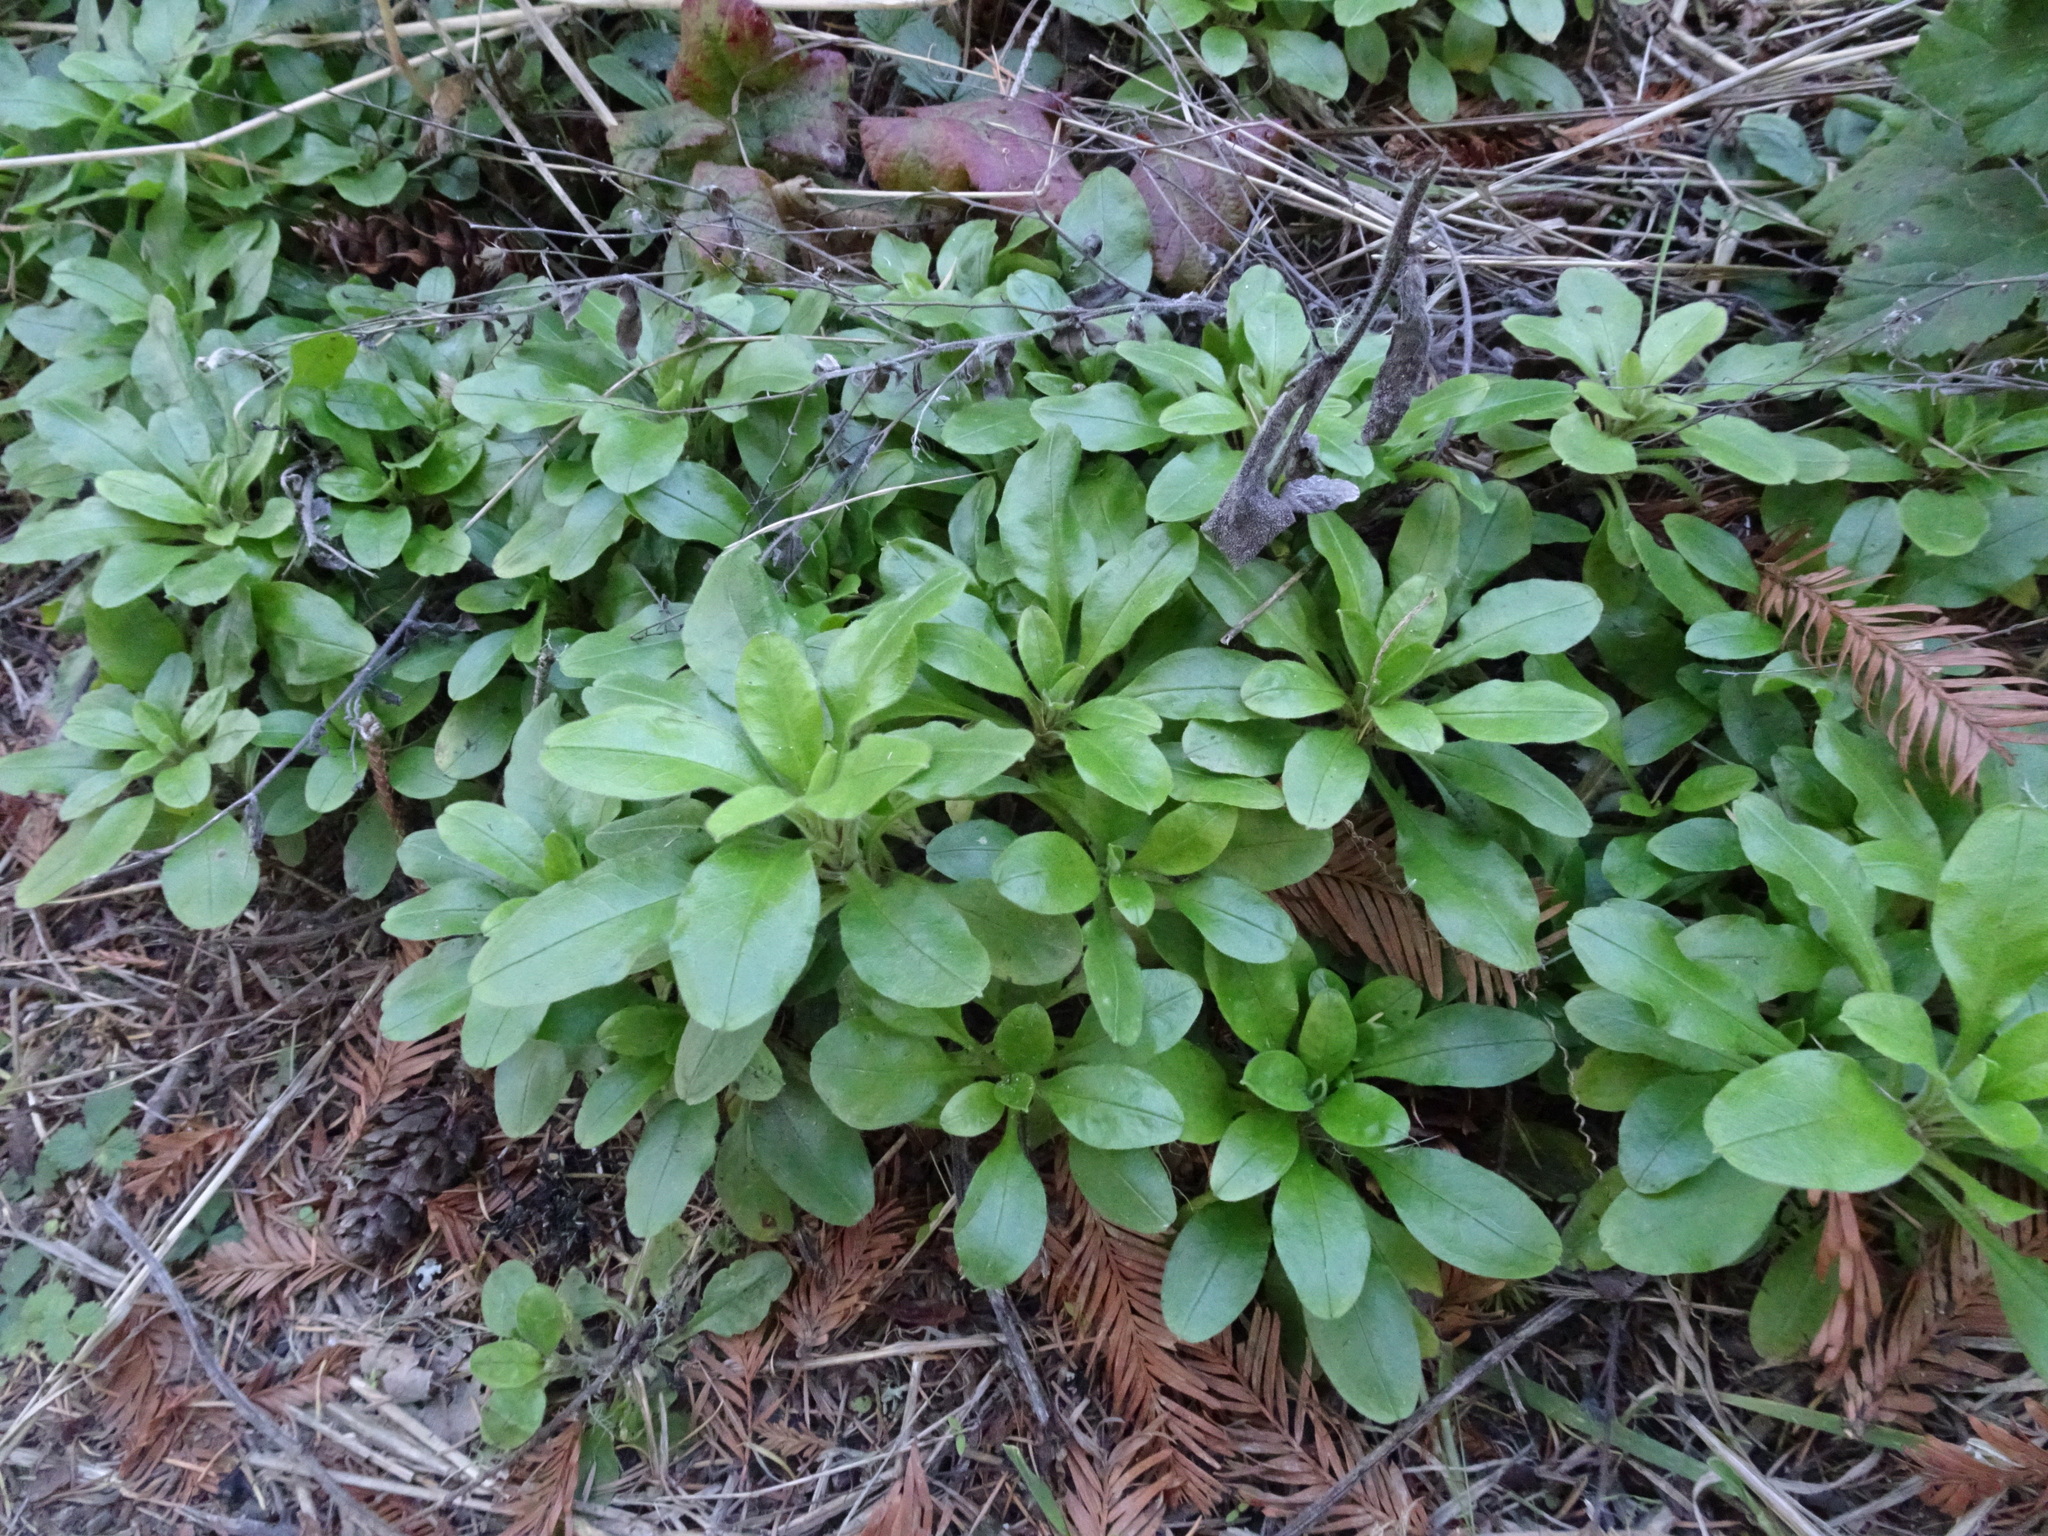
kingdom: Plantae
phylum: Tracheophyta
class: Magnoliopsida
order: Boraginales
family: Boraginaceae
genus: Myosotis
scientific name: Myosotis latifolia
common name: Broadleaf forget-me-not
